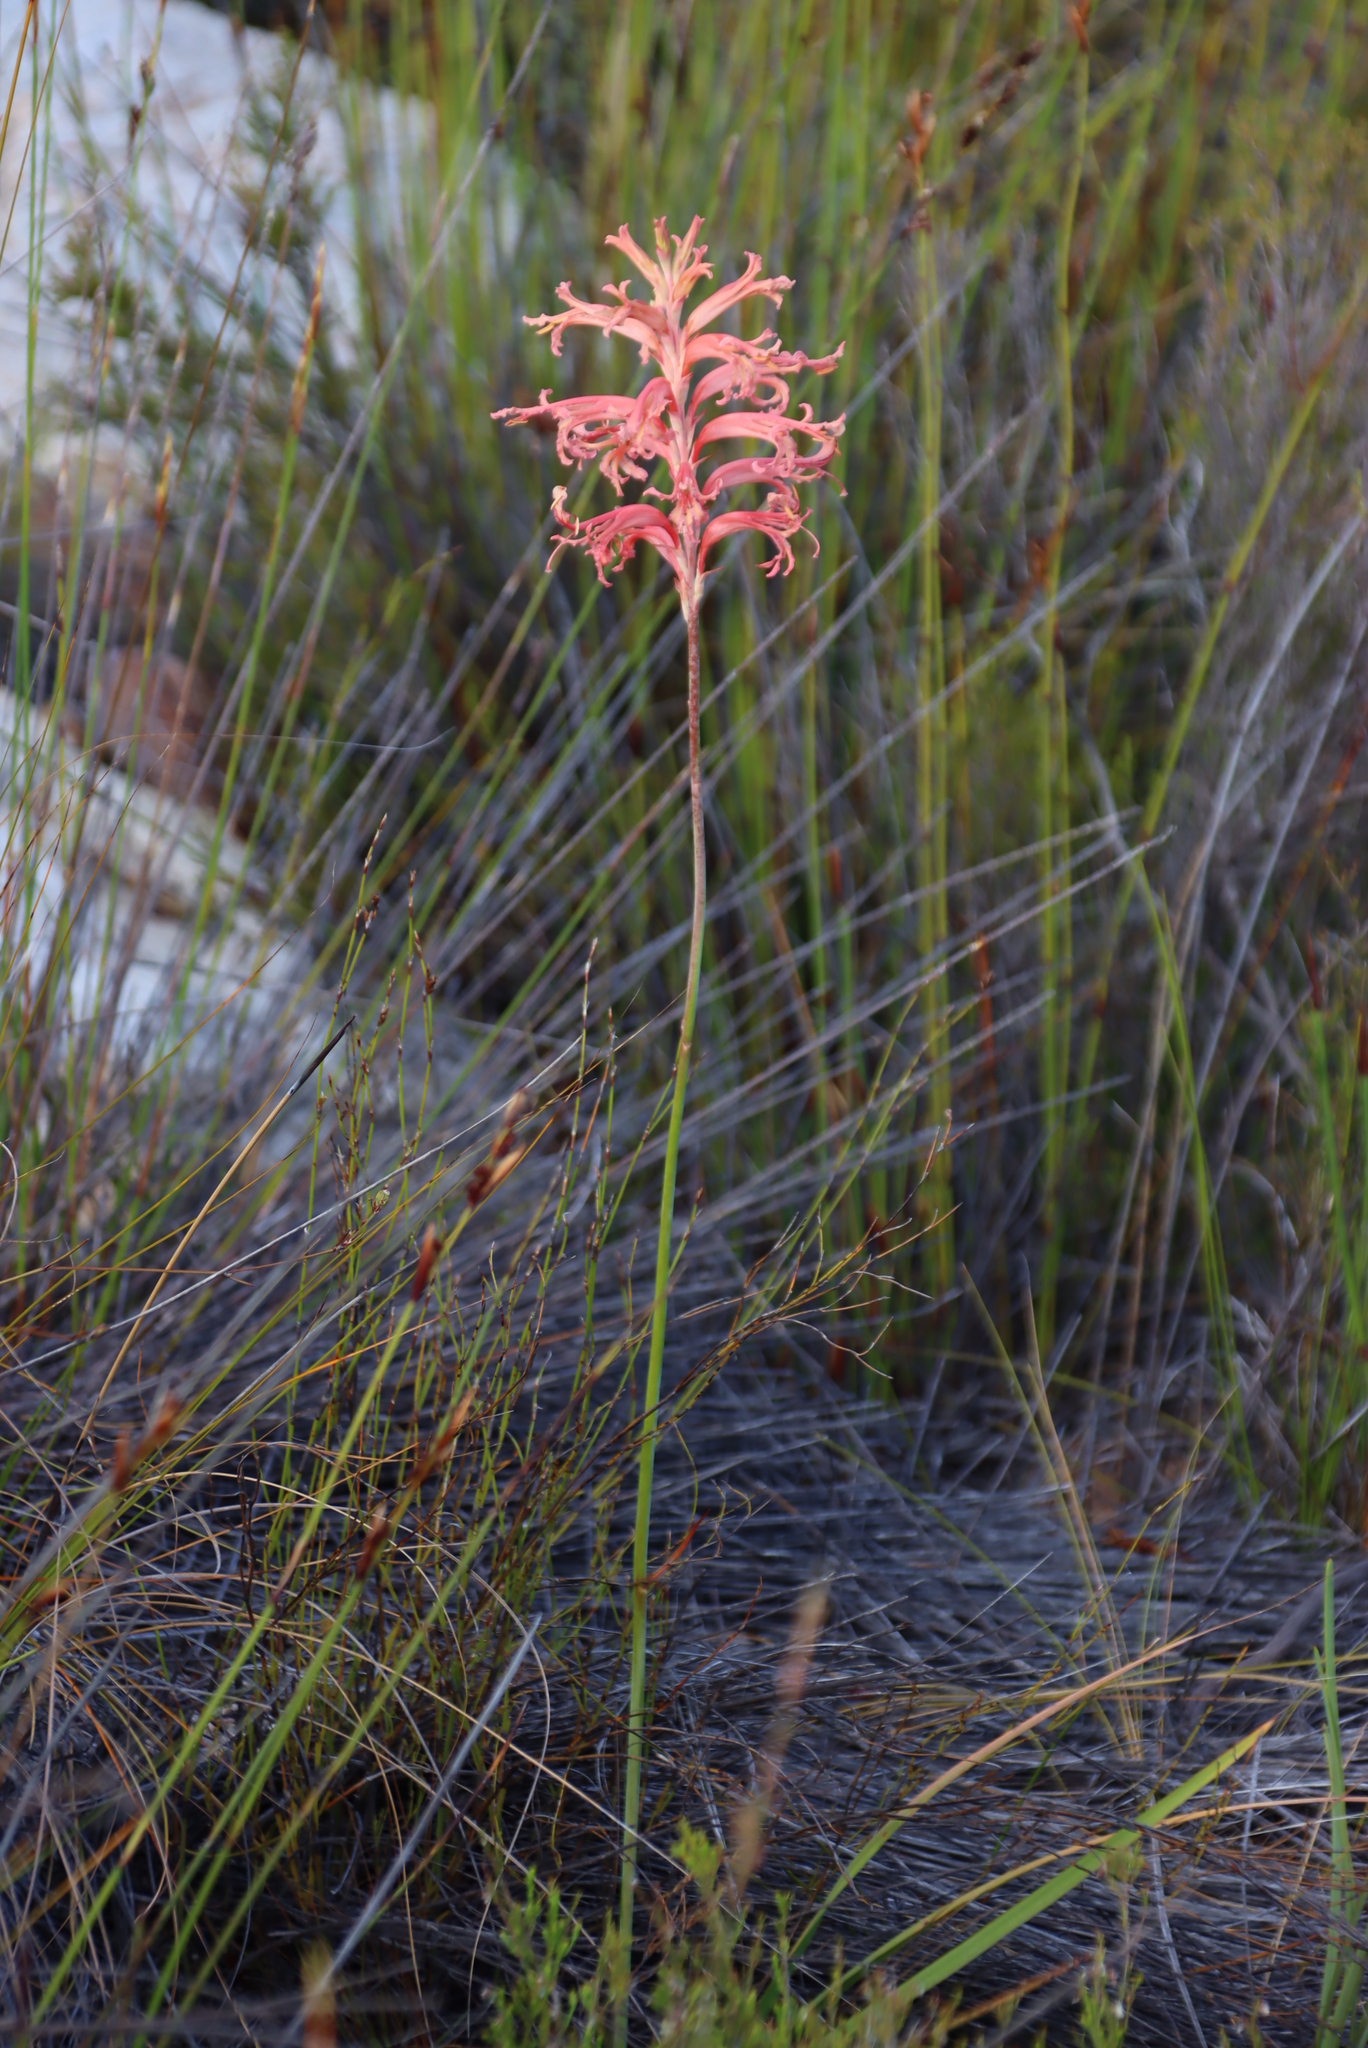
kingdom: Plantae
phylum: Tracheophyta
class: Liliopsida
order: Asparagales
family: Iridaceae
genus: Tritoniopsis
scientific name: Tritoniopsis antholyza
